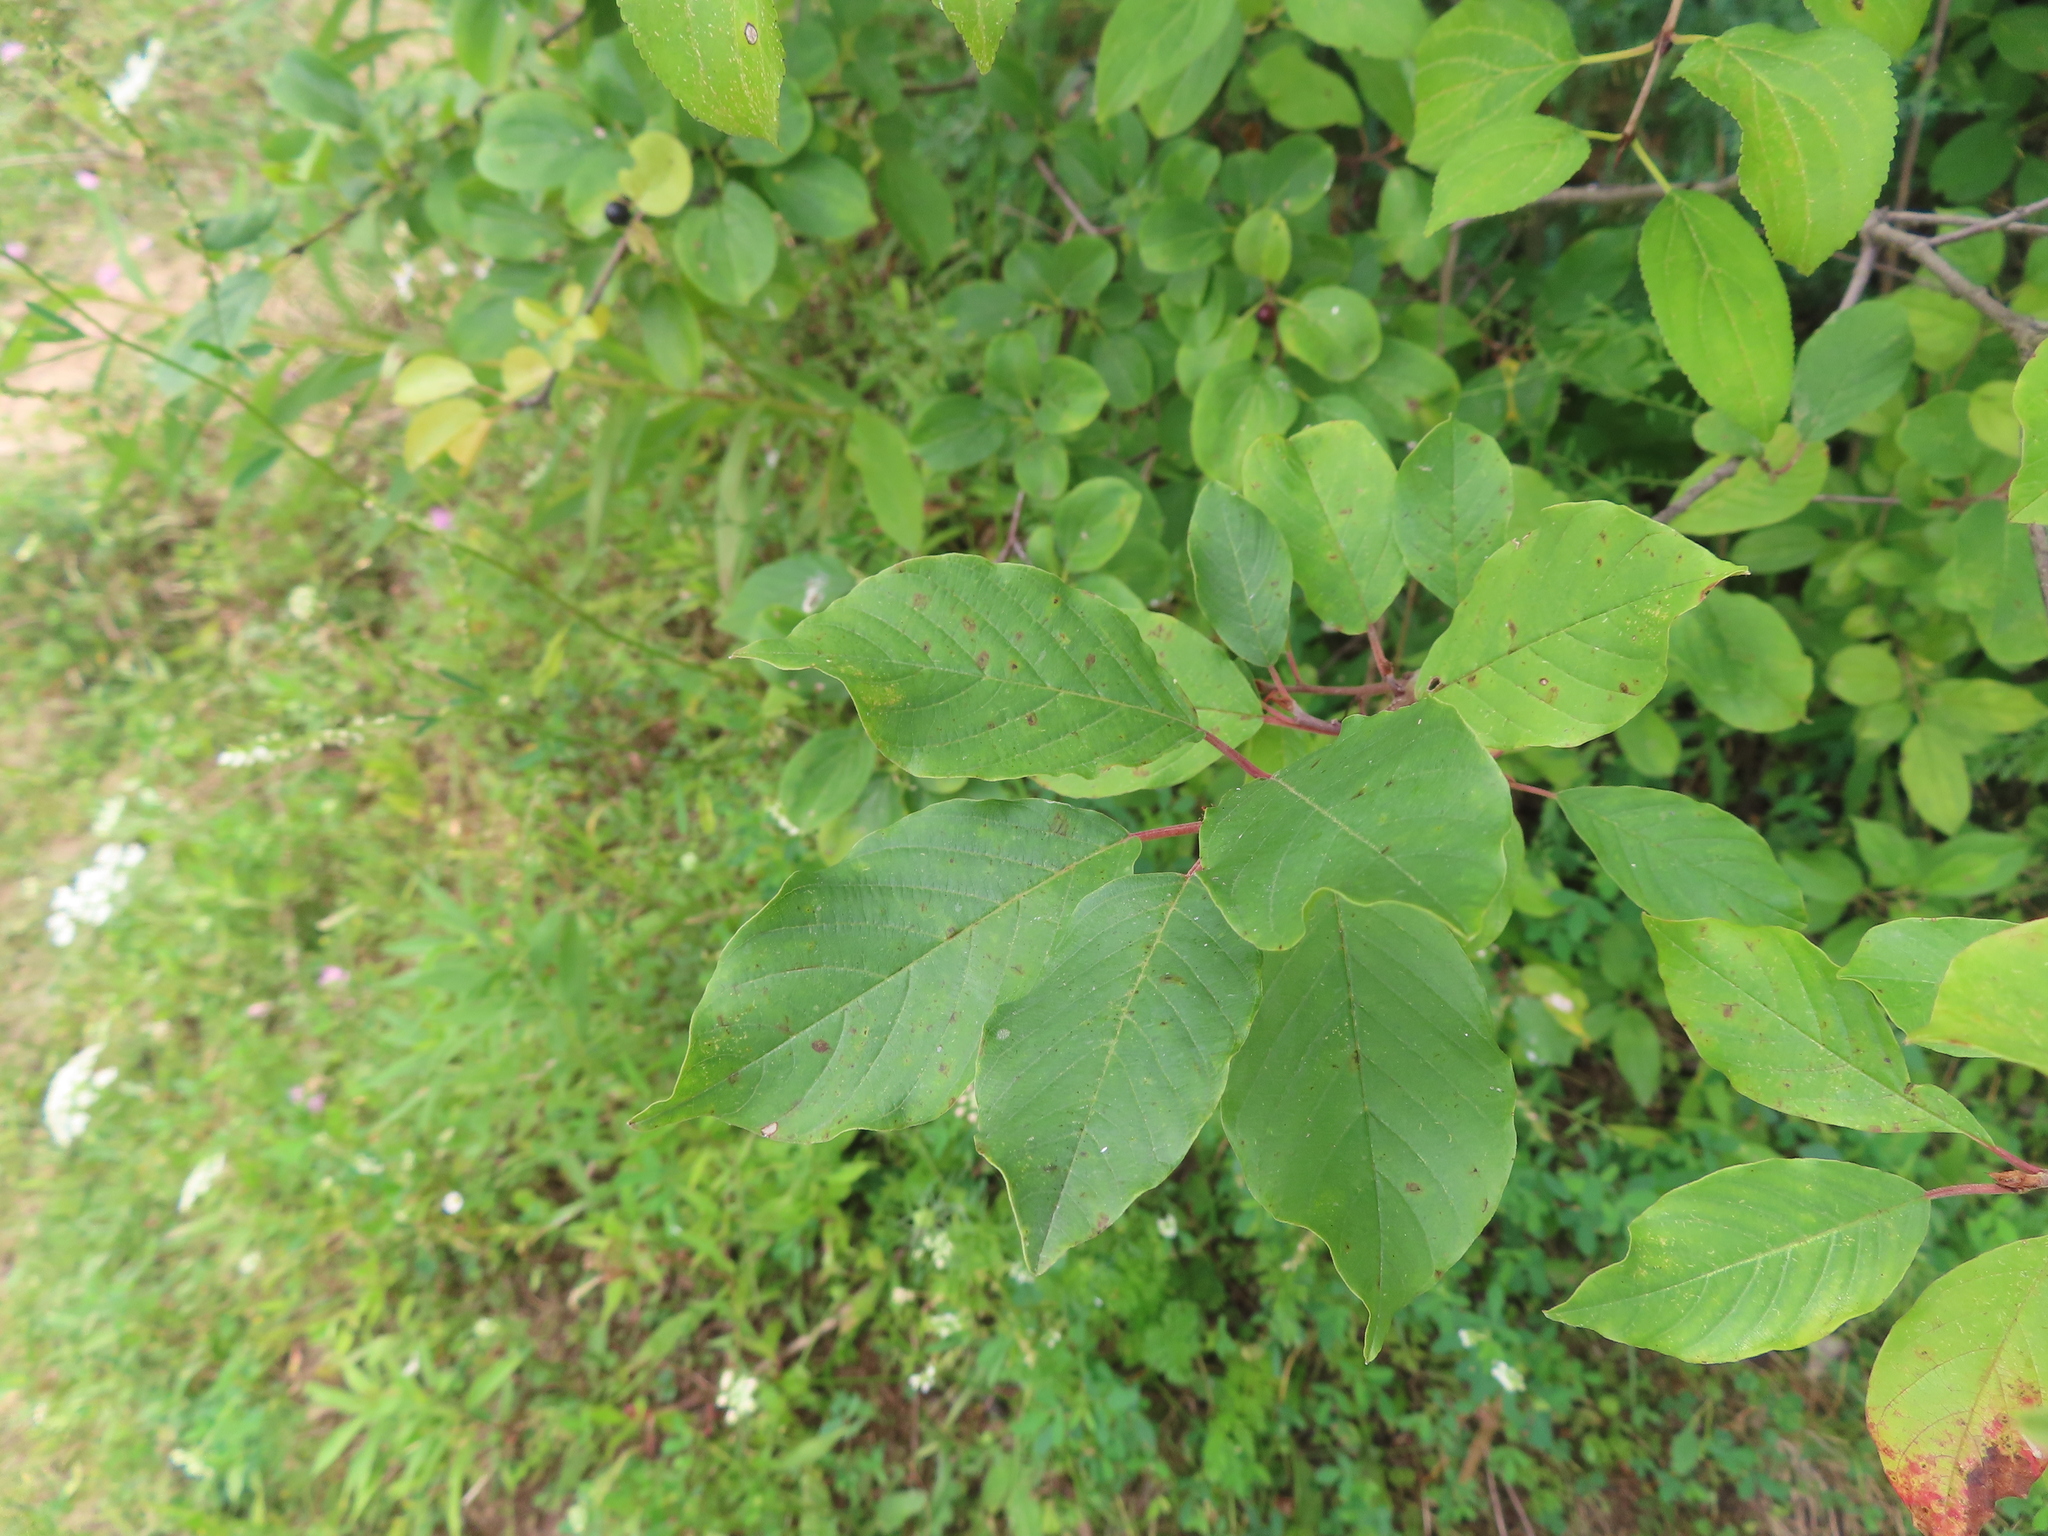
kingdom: Plantae
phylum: Tracheophyta
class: Magnoliopsida
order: Rosales
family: Rhamnaceae
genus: Frangula
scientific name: Frangula alnus
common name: Alder buckthorn
